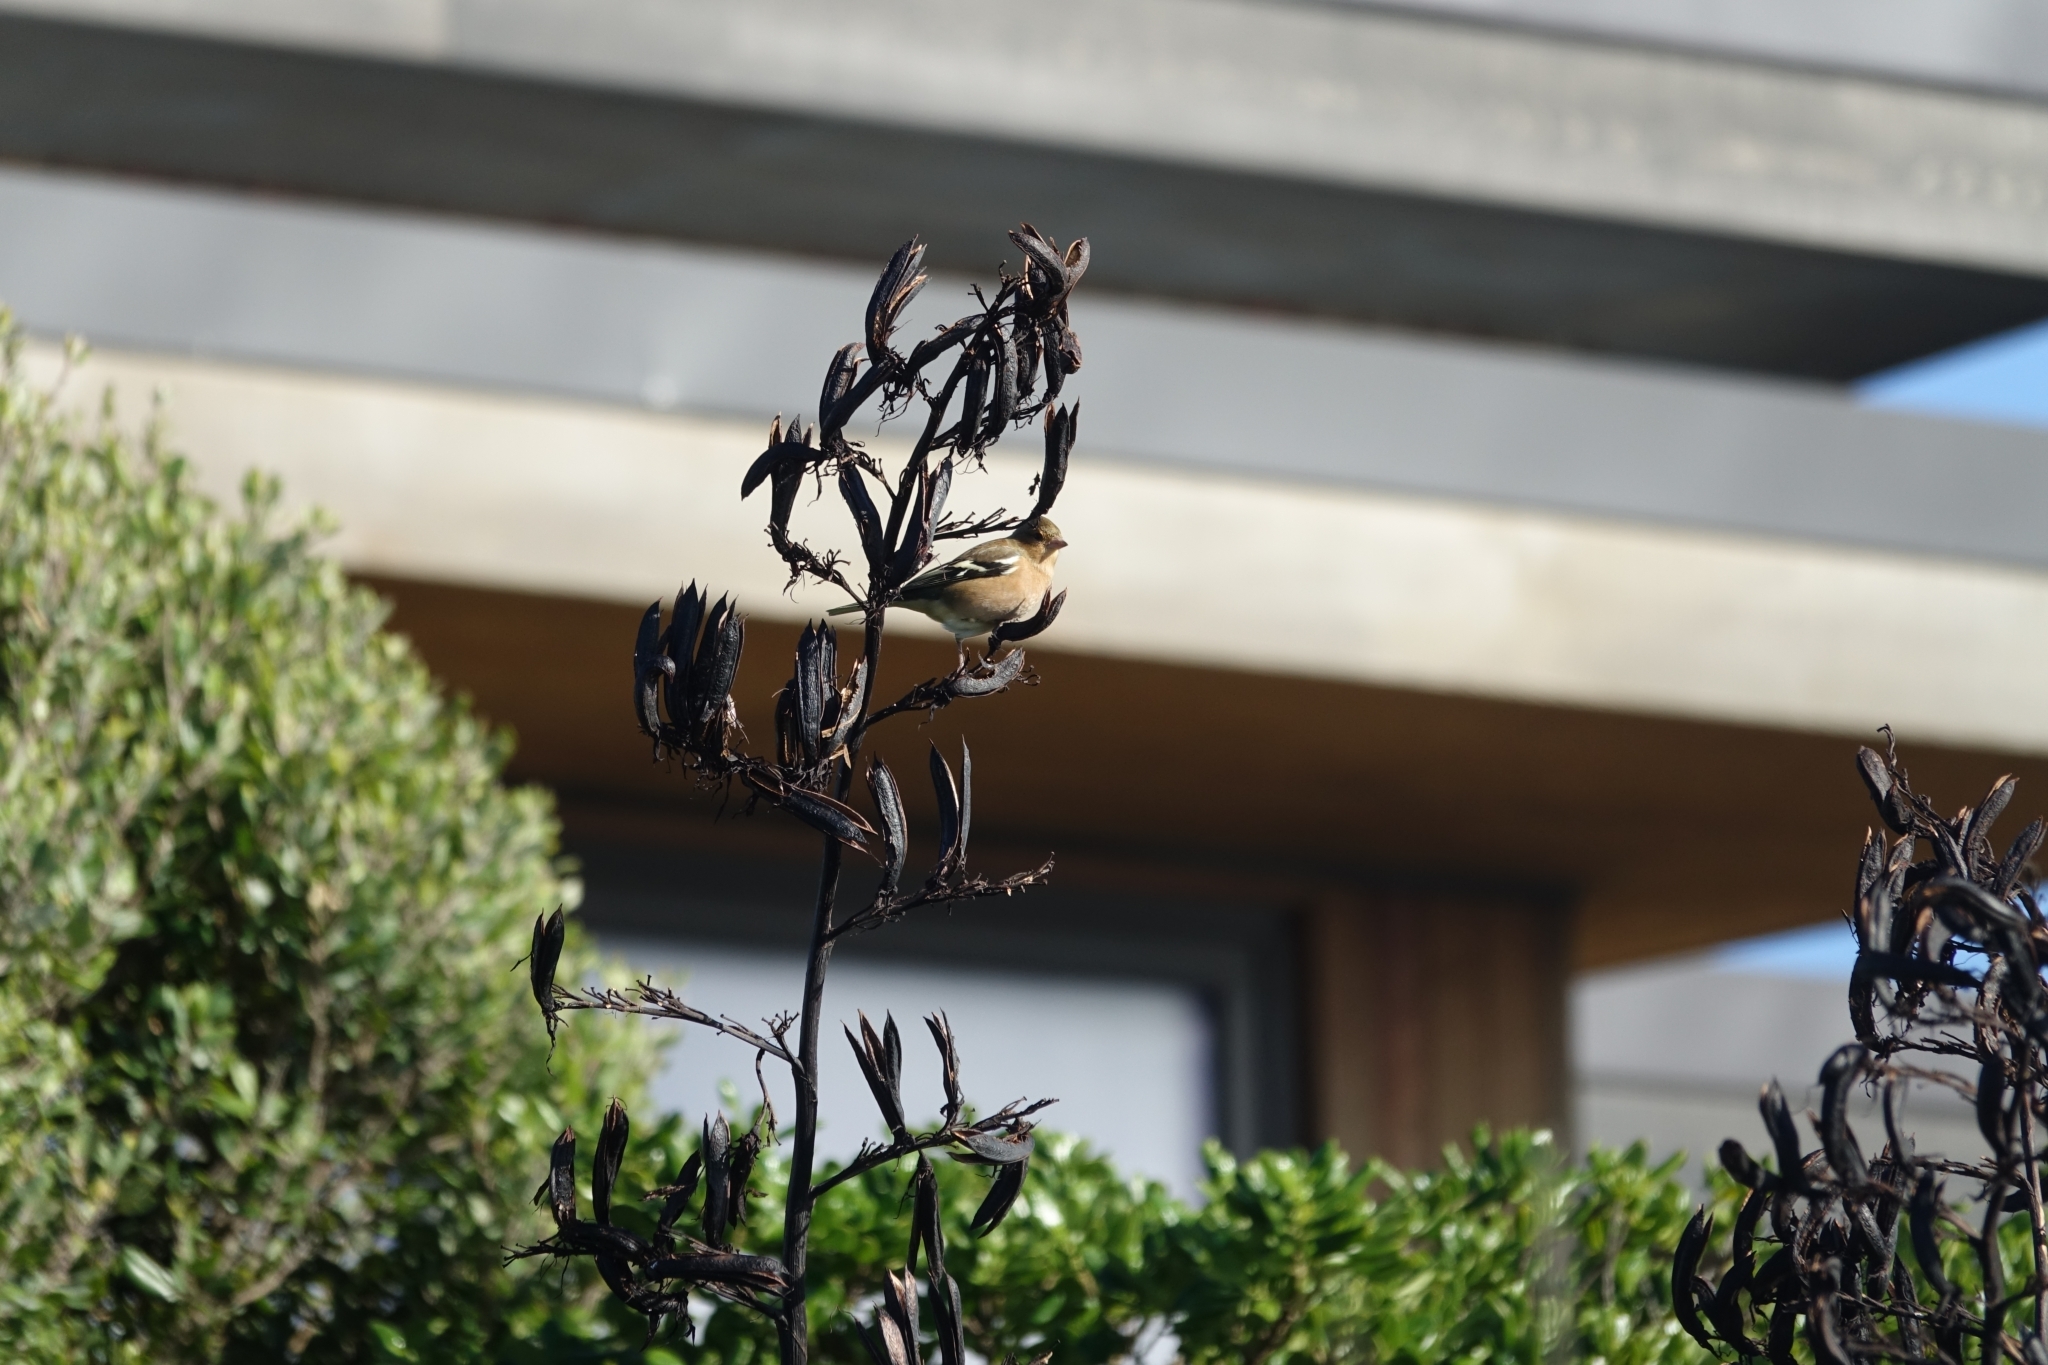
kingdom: Animalia
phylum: Chordata
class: Aves
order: Passeriformes
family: Fringillidae
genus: Fringilla
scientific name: Fringilla coelebs
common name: Common chaffinch
